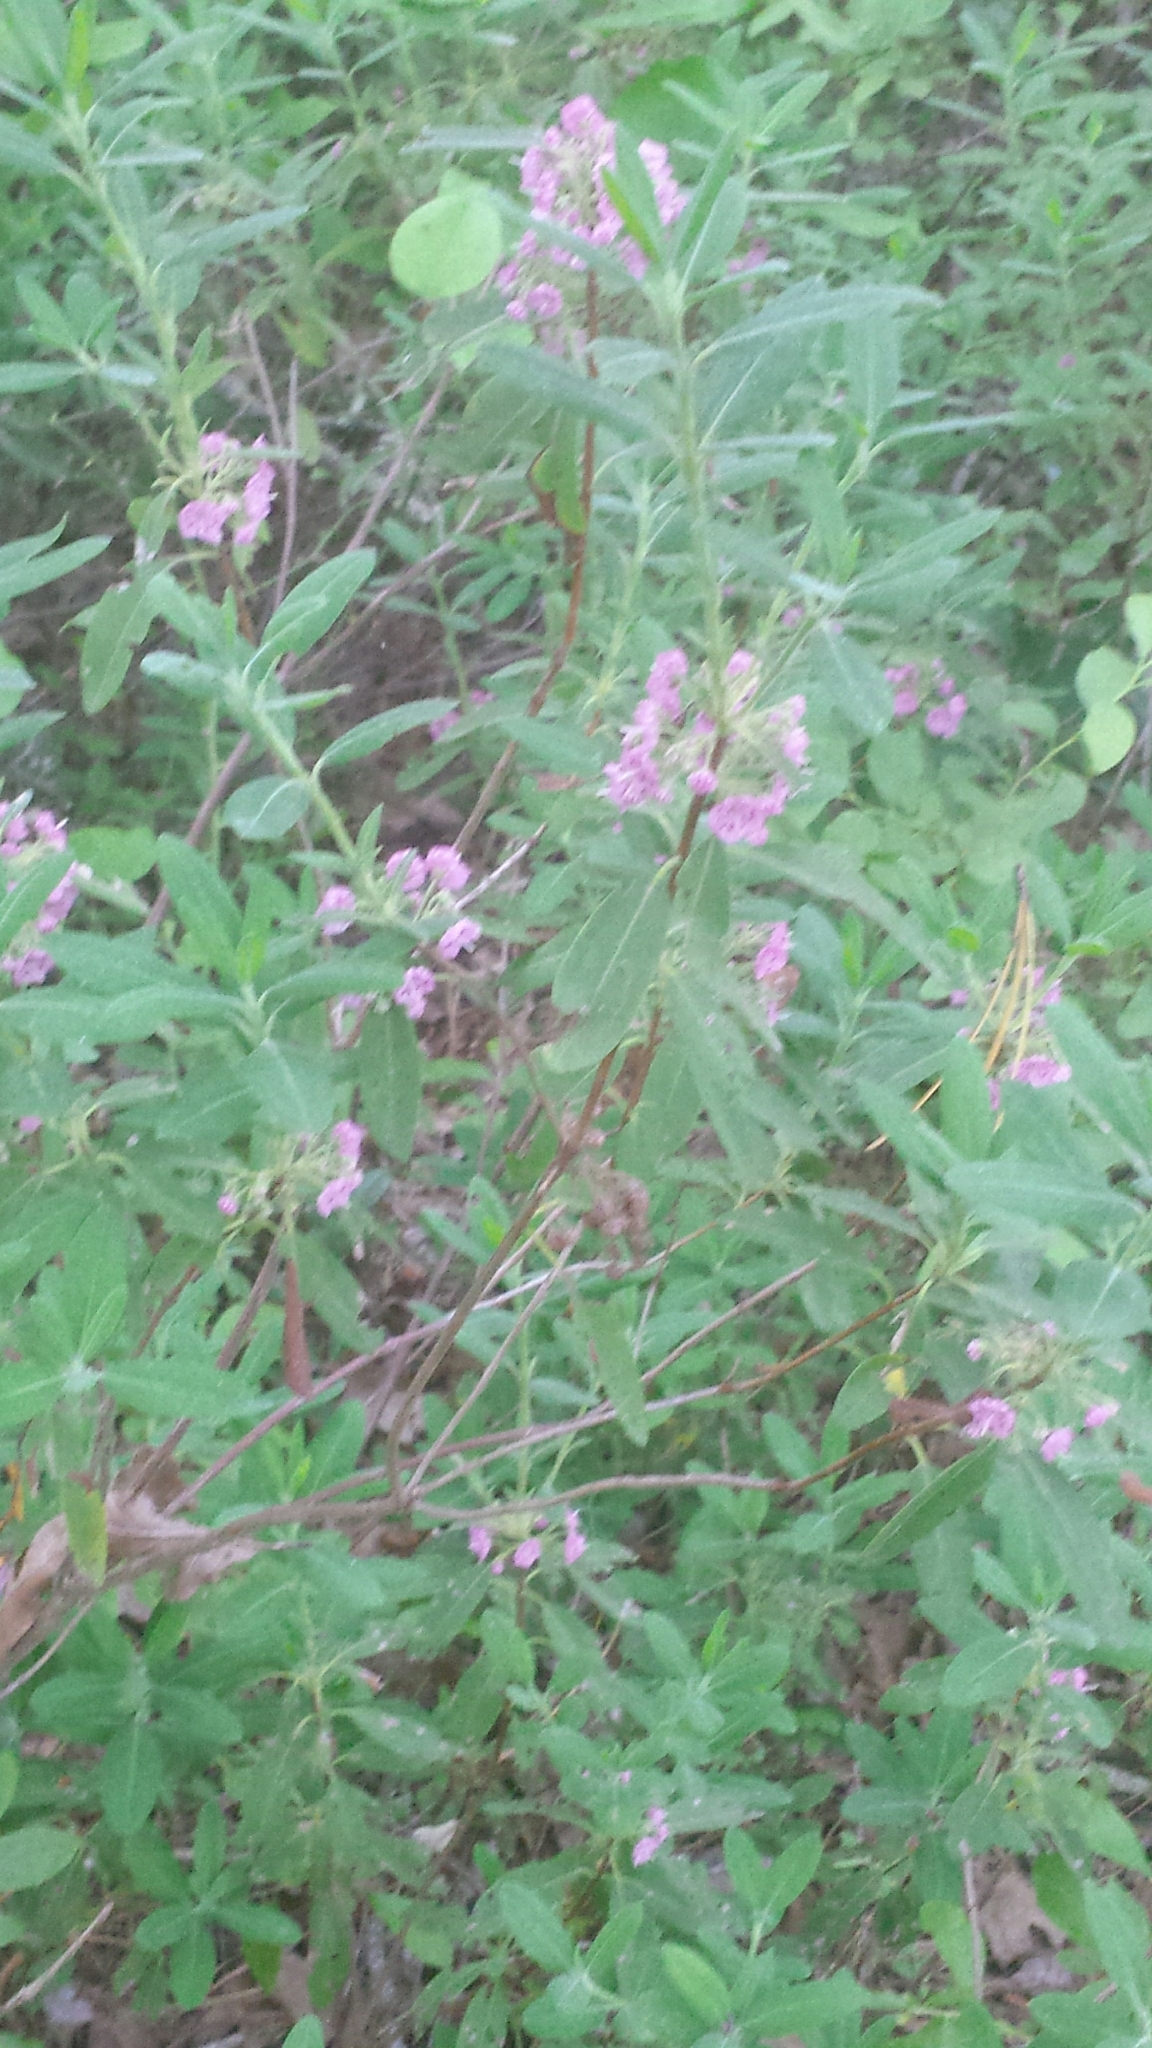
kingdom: Plantae
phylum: Tracheophyta
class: Magnoliopsida
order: Ericales
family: Ericaceae
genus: Kalmia
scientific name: Kalmia angustifolia
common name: Sheep-laurel
